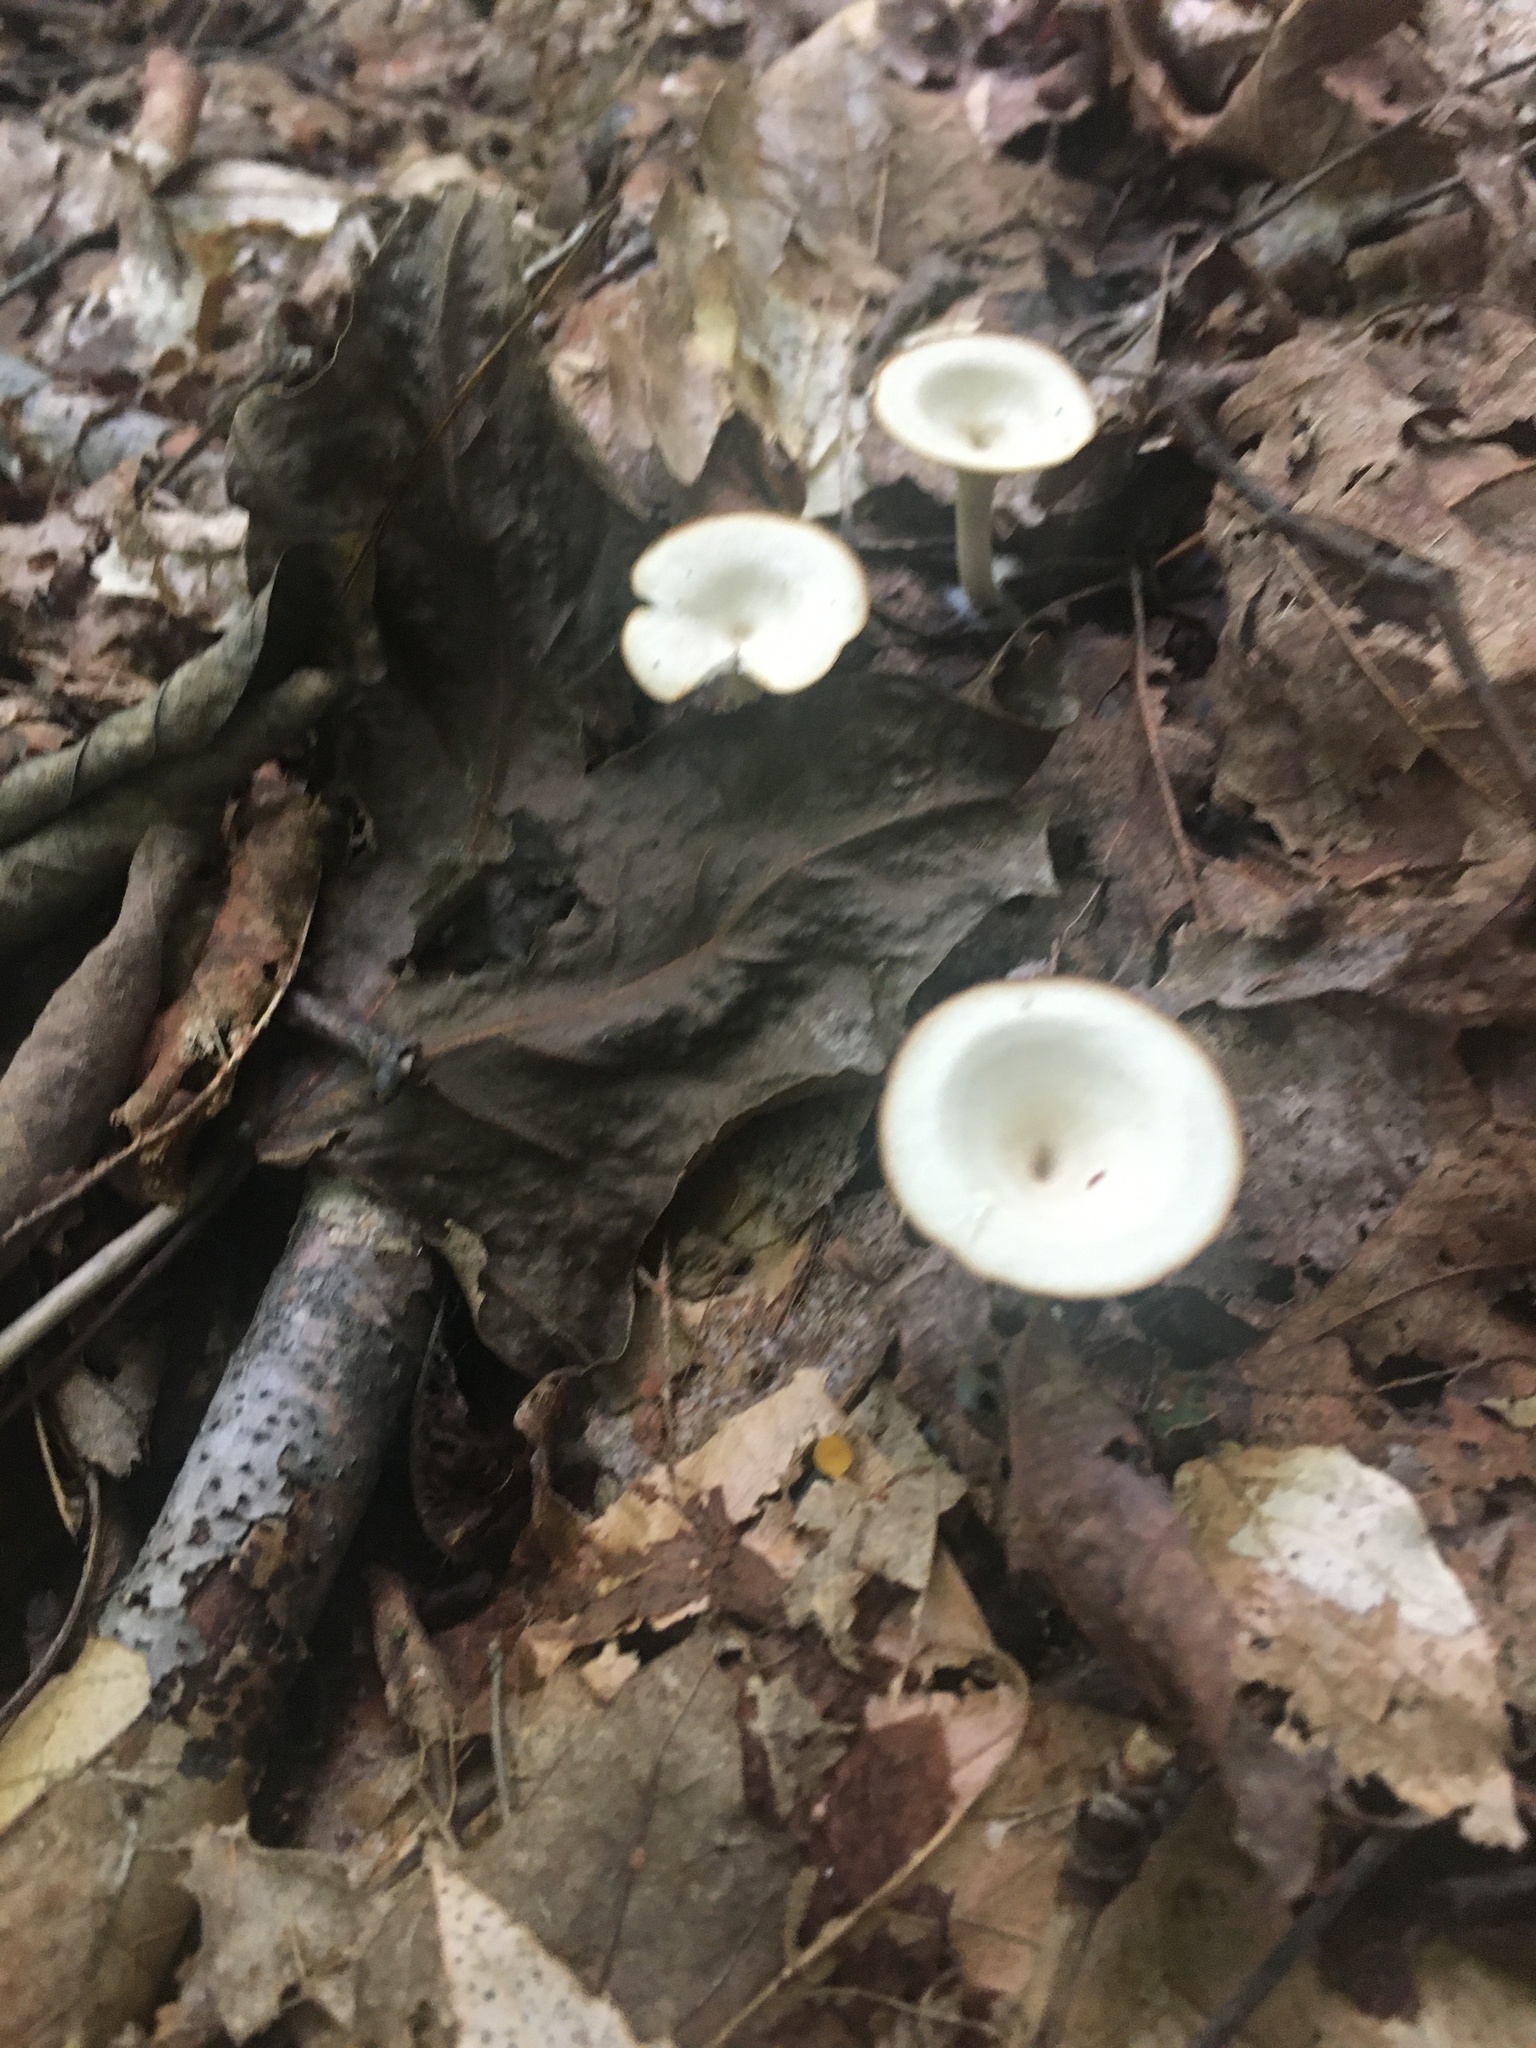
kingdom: Fungi
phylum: Basidiomycota
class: Agaricomycetes
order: Agaricales
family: Tricholomataceae
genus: Infundibulicybe
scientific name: Infundibulicybe gibba
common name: Common funnel
